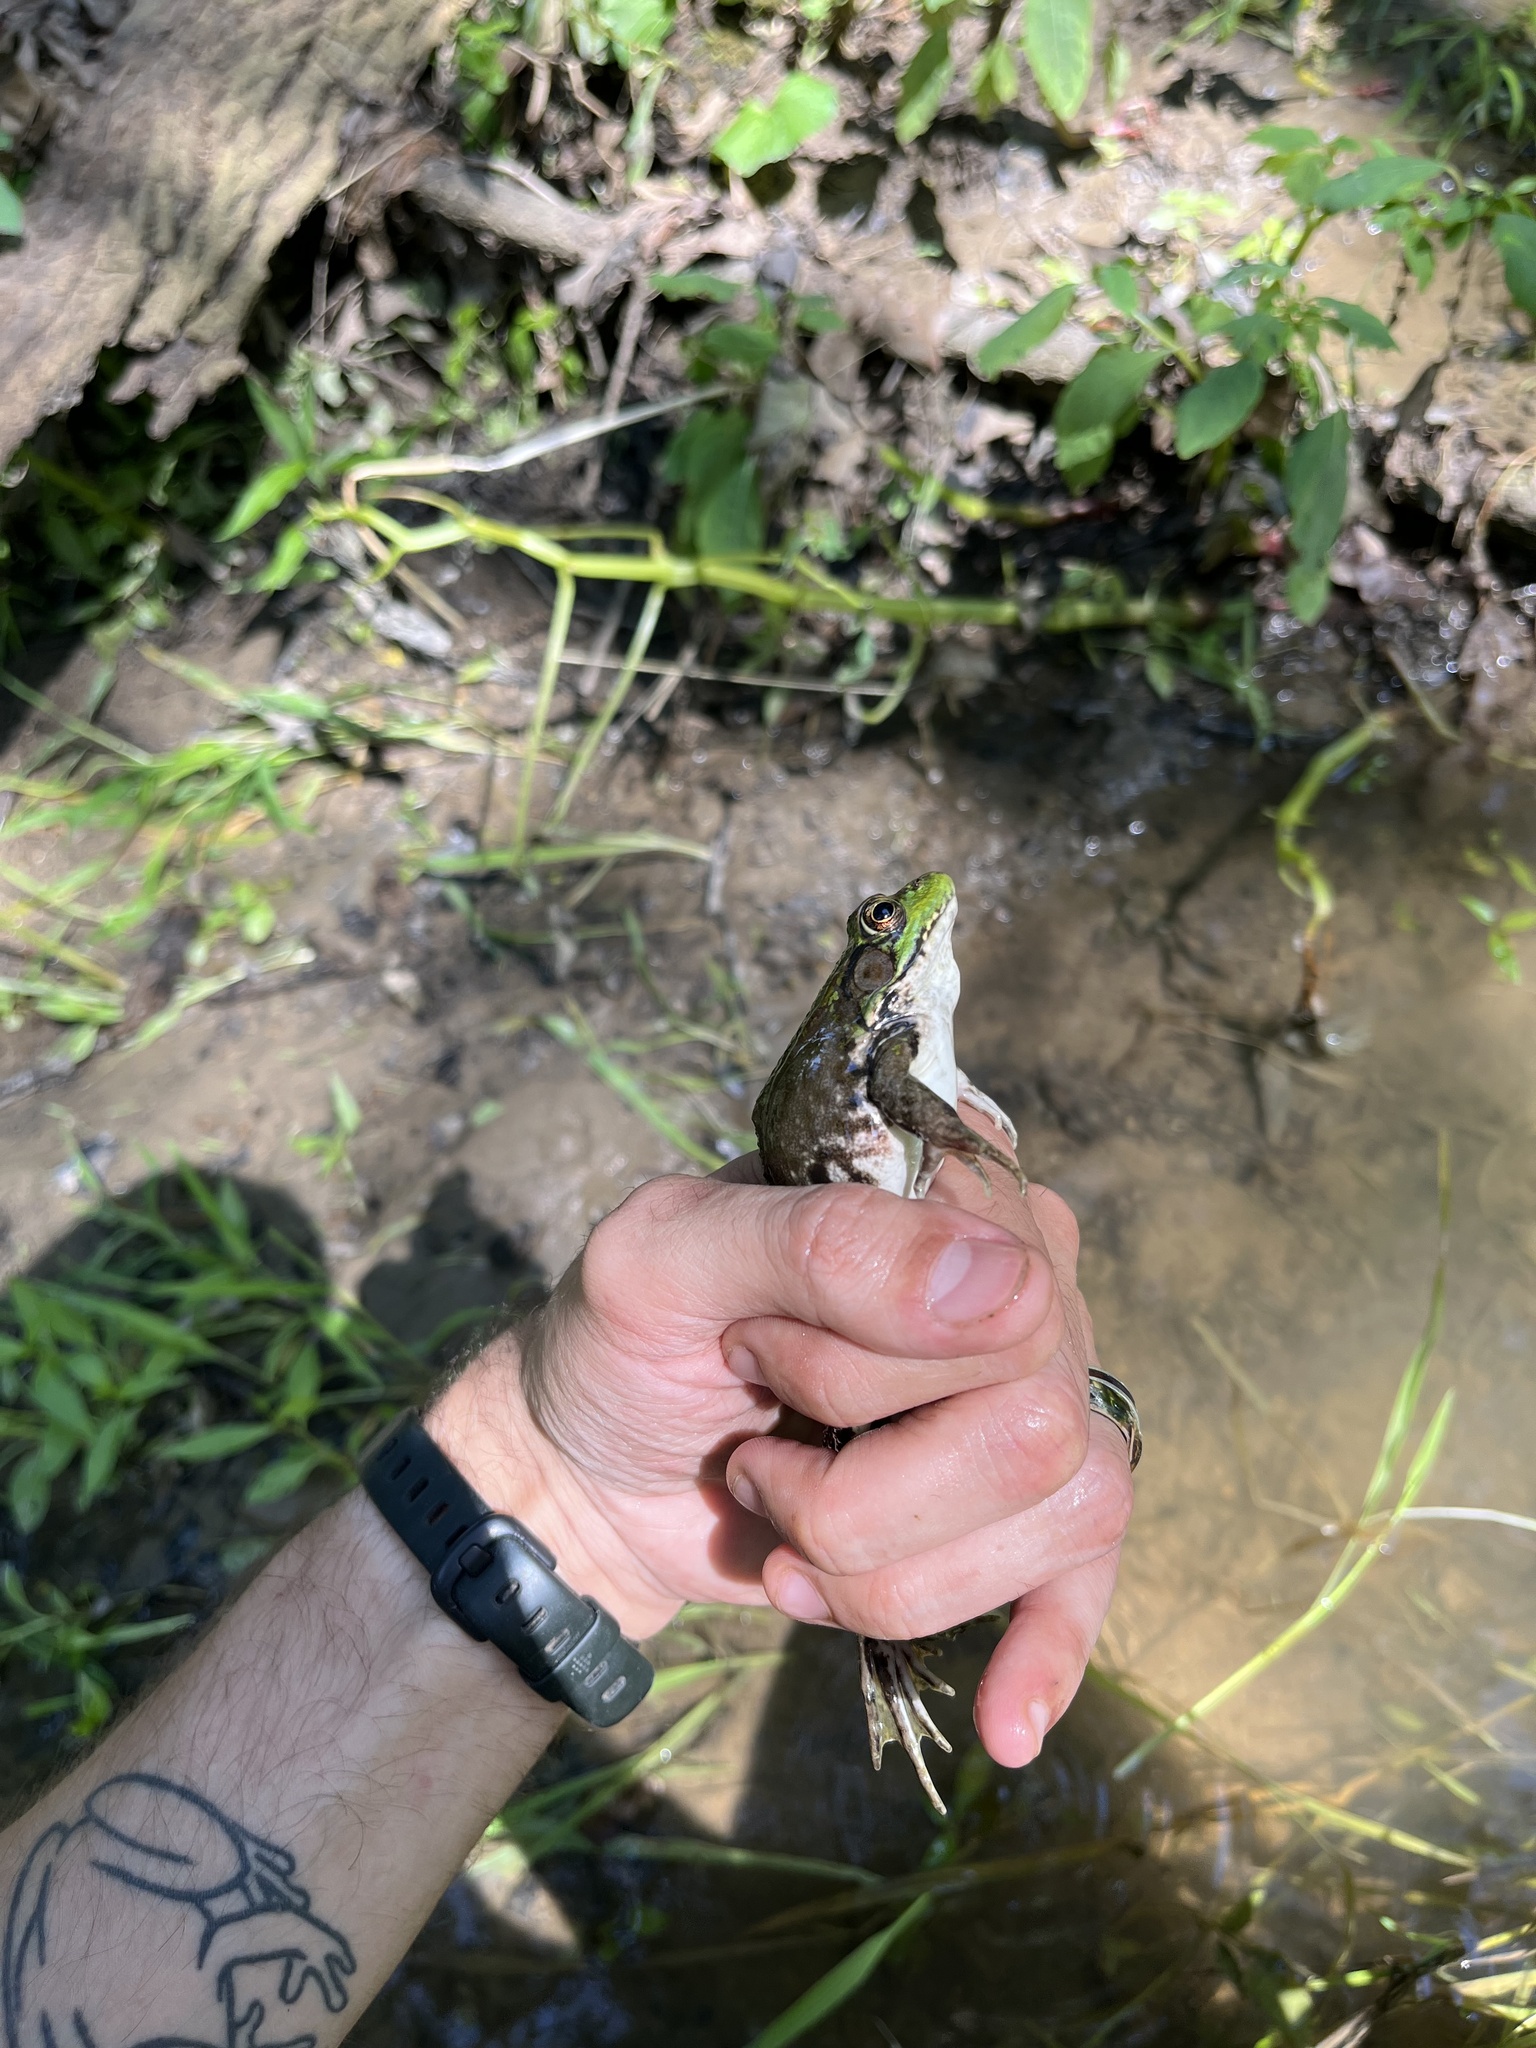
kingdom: Animalia
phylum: Chordata
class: Amphibia
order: Anura
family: Ranidae
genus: Lithobates
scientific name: Lithobates clamitans
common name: Green frog
